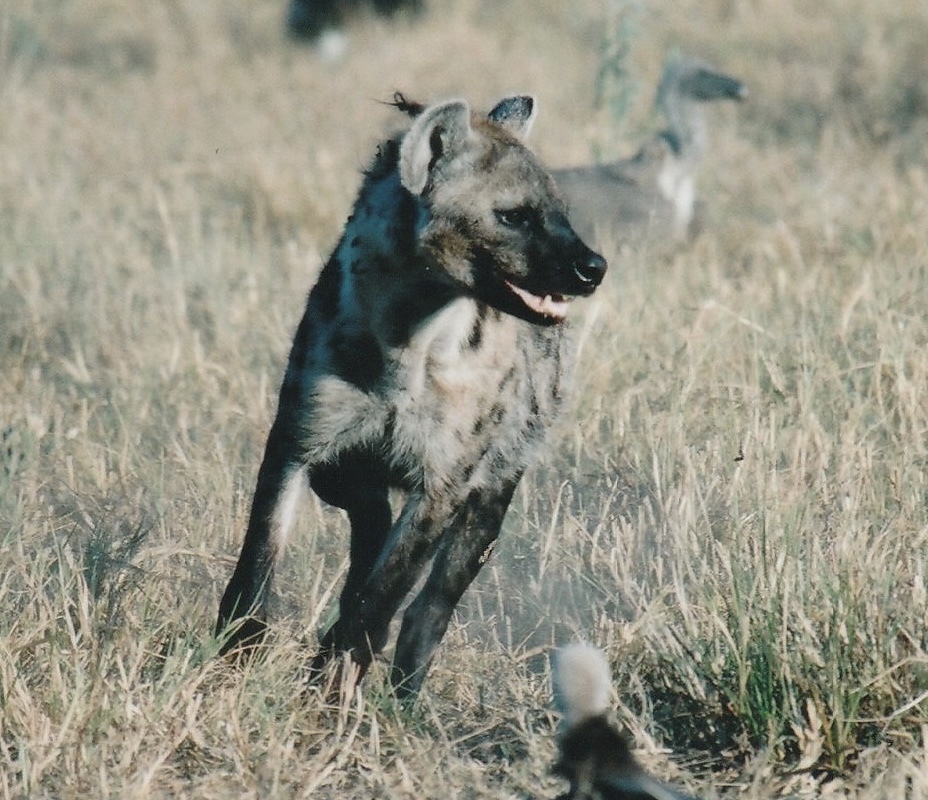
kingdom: Animalia
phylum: Chordata
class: Mammalia
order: Carnivora
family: Hyaenidae
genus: Crocuta
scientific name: Crocuta crocuta
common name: Spotted hyaena
